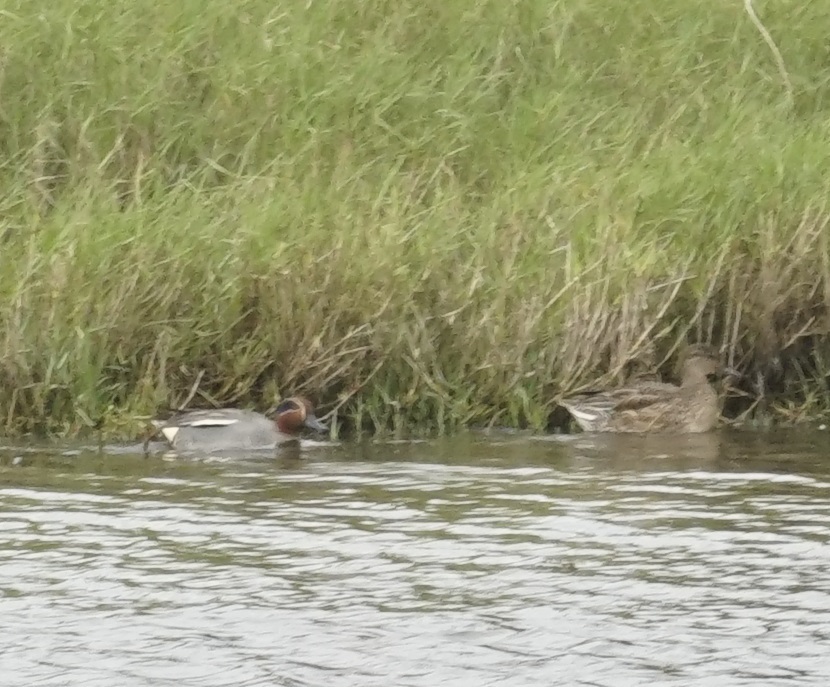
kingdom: Animalia
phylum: Chordata
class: Aves
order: Anseriformes
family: Anatidae
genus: Anas
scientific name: Anas crecca
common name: Eurasian teal
